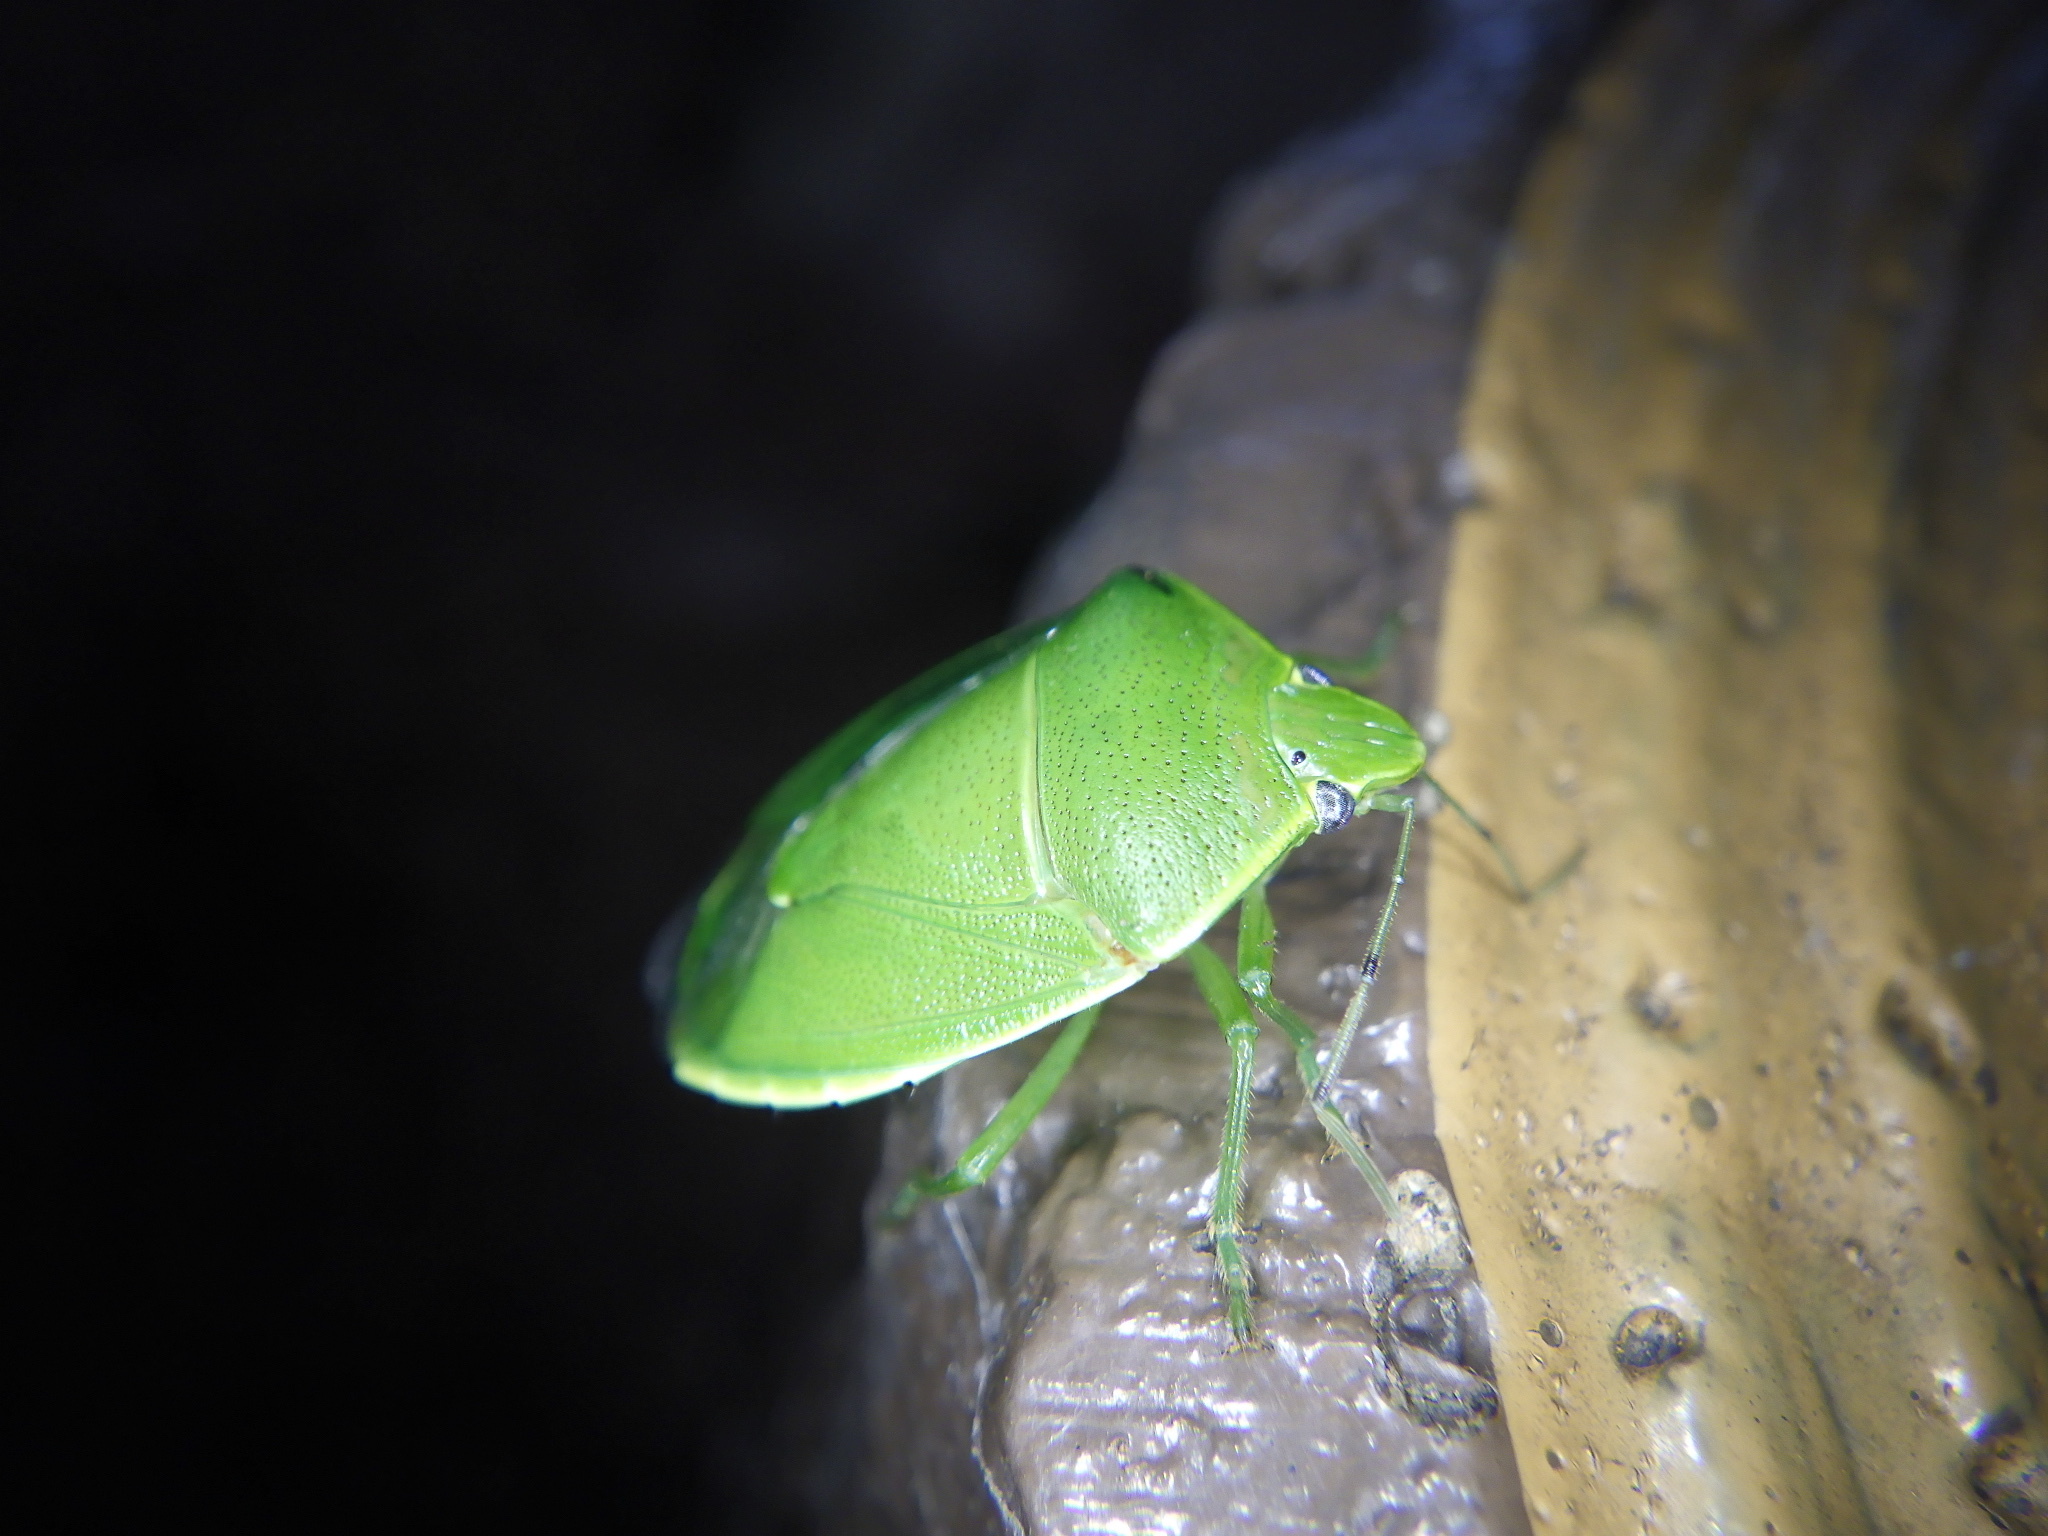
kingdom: Animalia
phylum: Arthropoda
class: Insecta
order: Hemiptera
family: Pentatomidae
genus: Glaucias
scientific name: Glaucias subpunctatus
